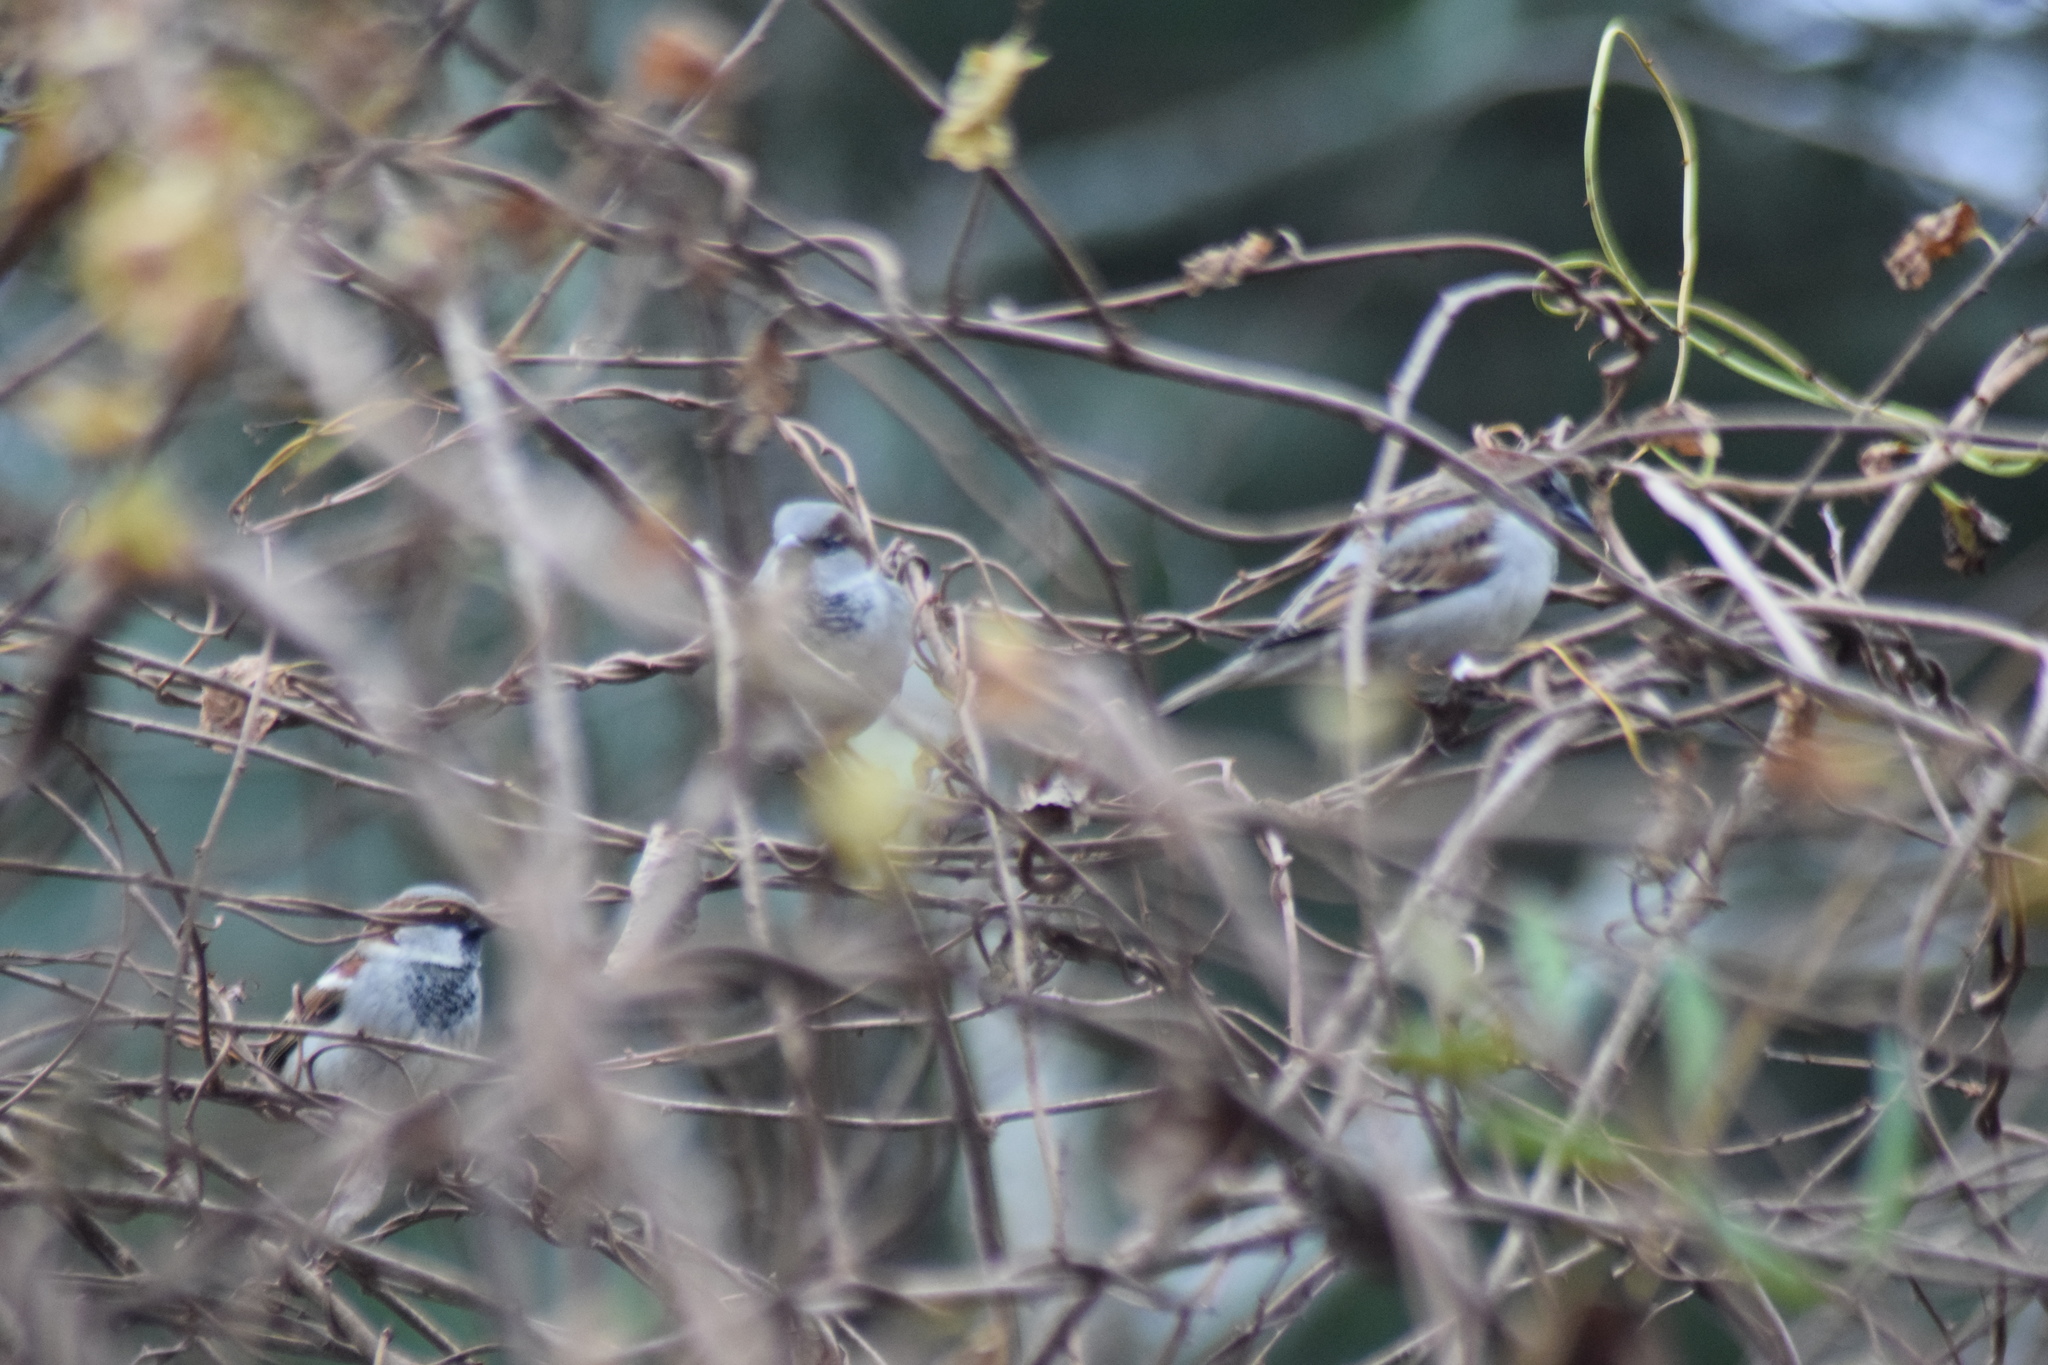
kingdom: Animalia
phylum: Chordata
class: Aves
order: Passeriformes
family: Passeridae
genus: Passer
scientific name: Passer domesticus
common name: House sparrow
